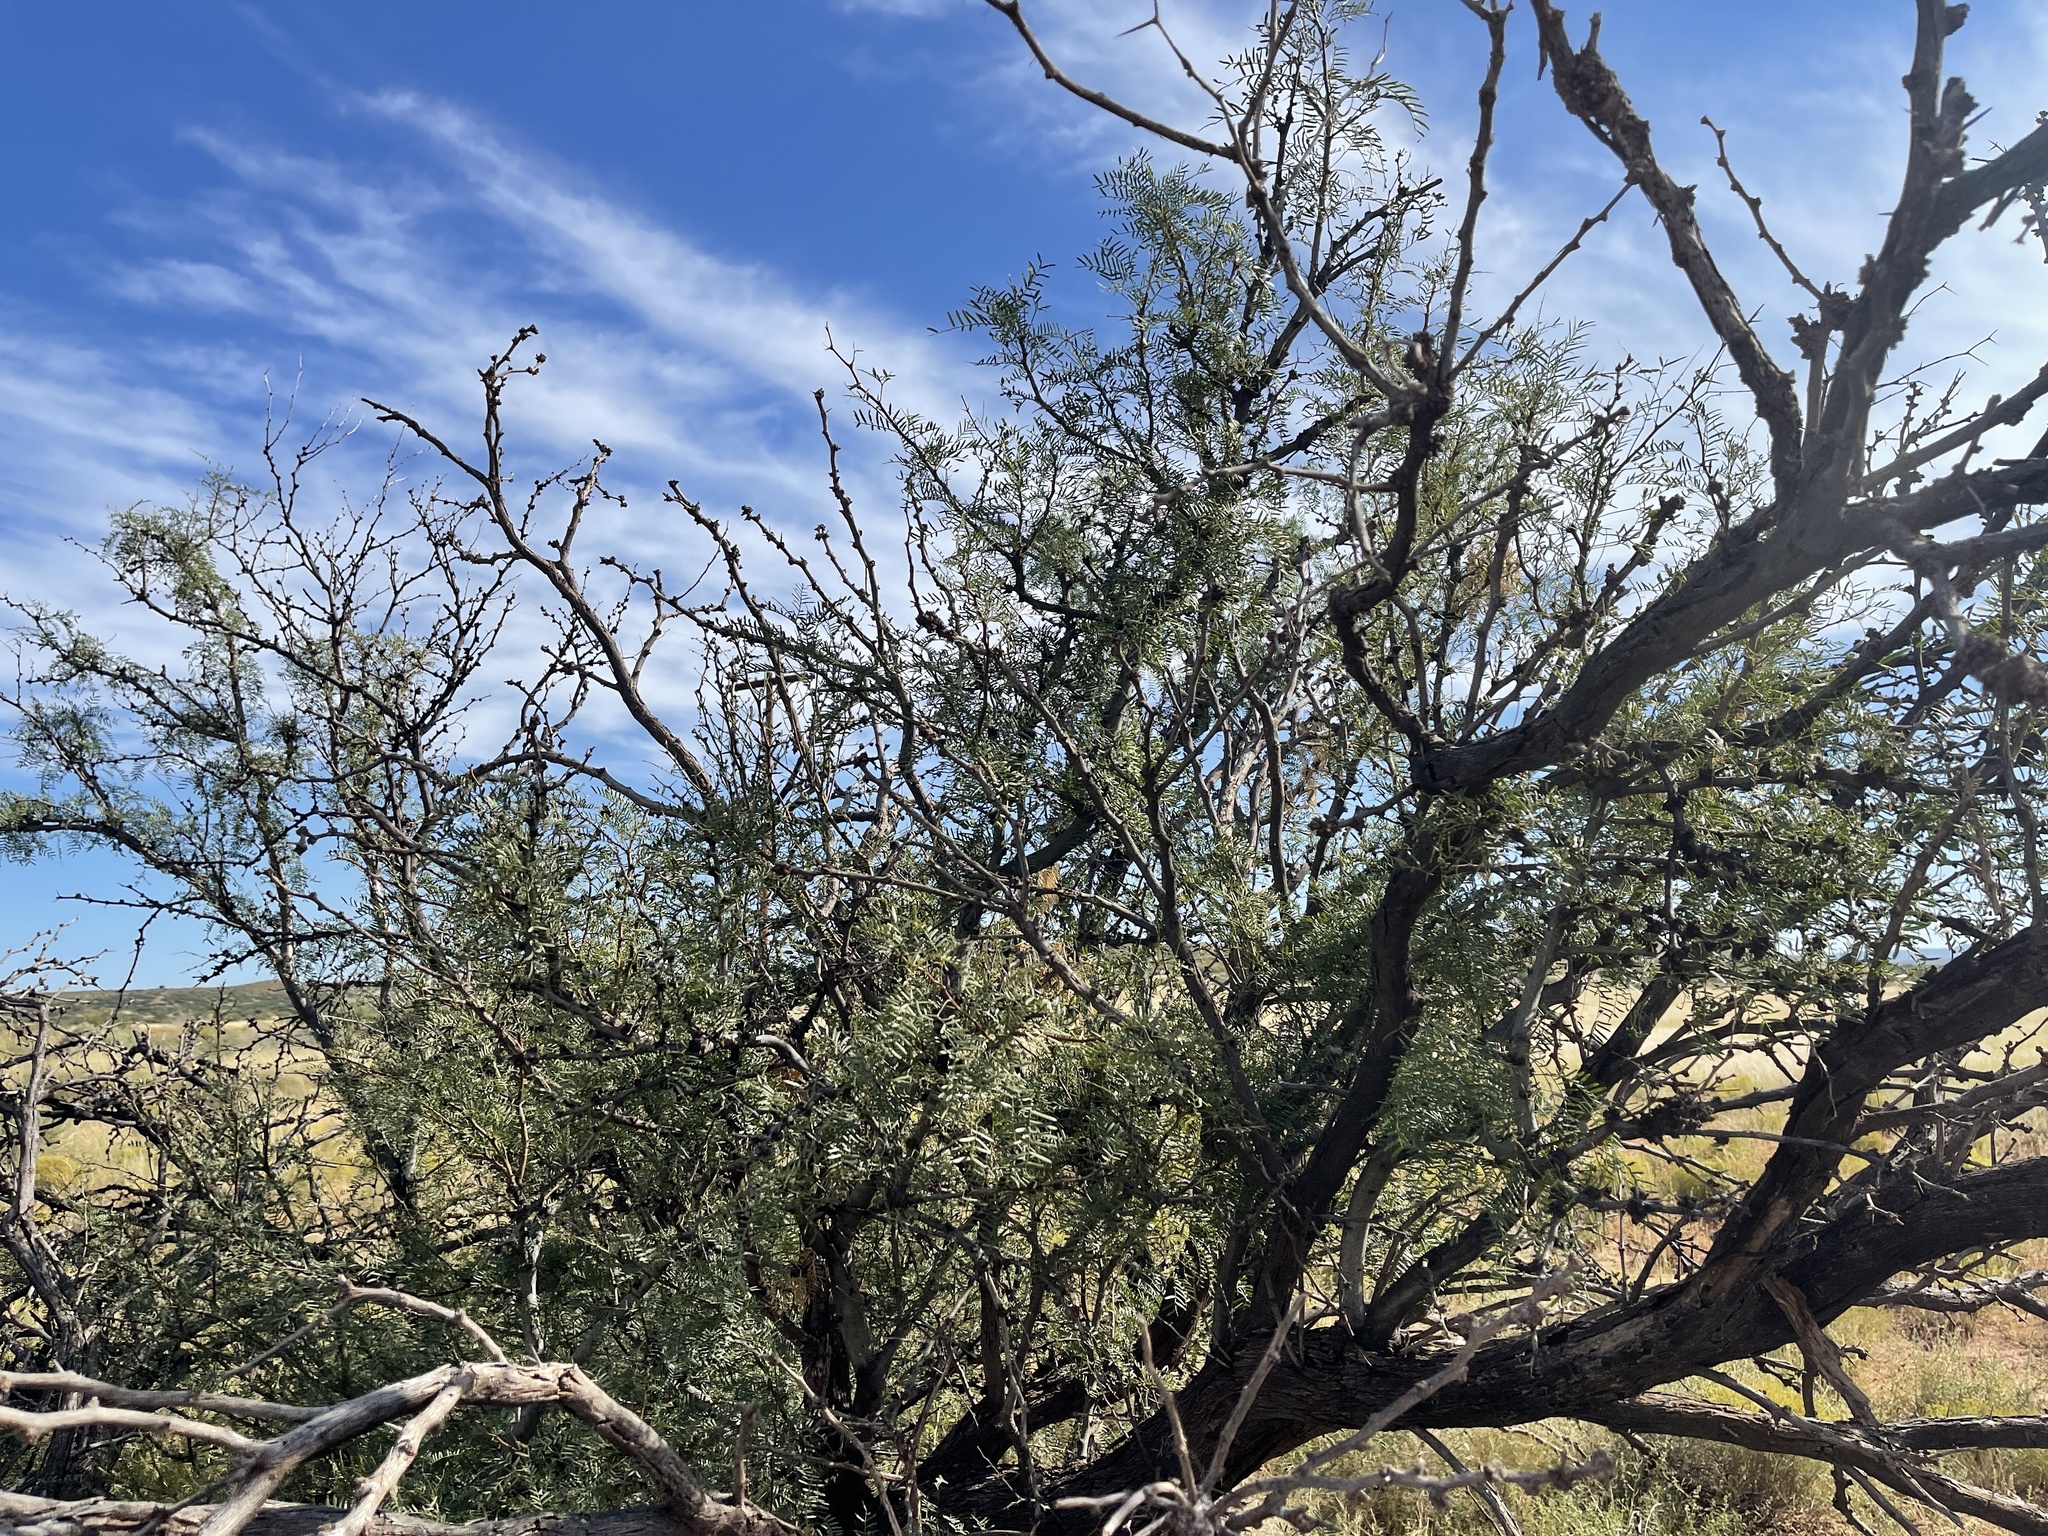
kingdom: Plantae
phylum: Tracheophyta
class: Magnoliopsida
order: Fabales
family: Fabaceae
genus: Prosopis
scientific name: Prosopis glandulosa
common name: Honey mesquite
